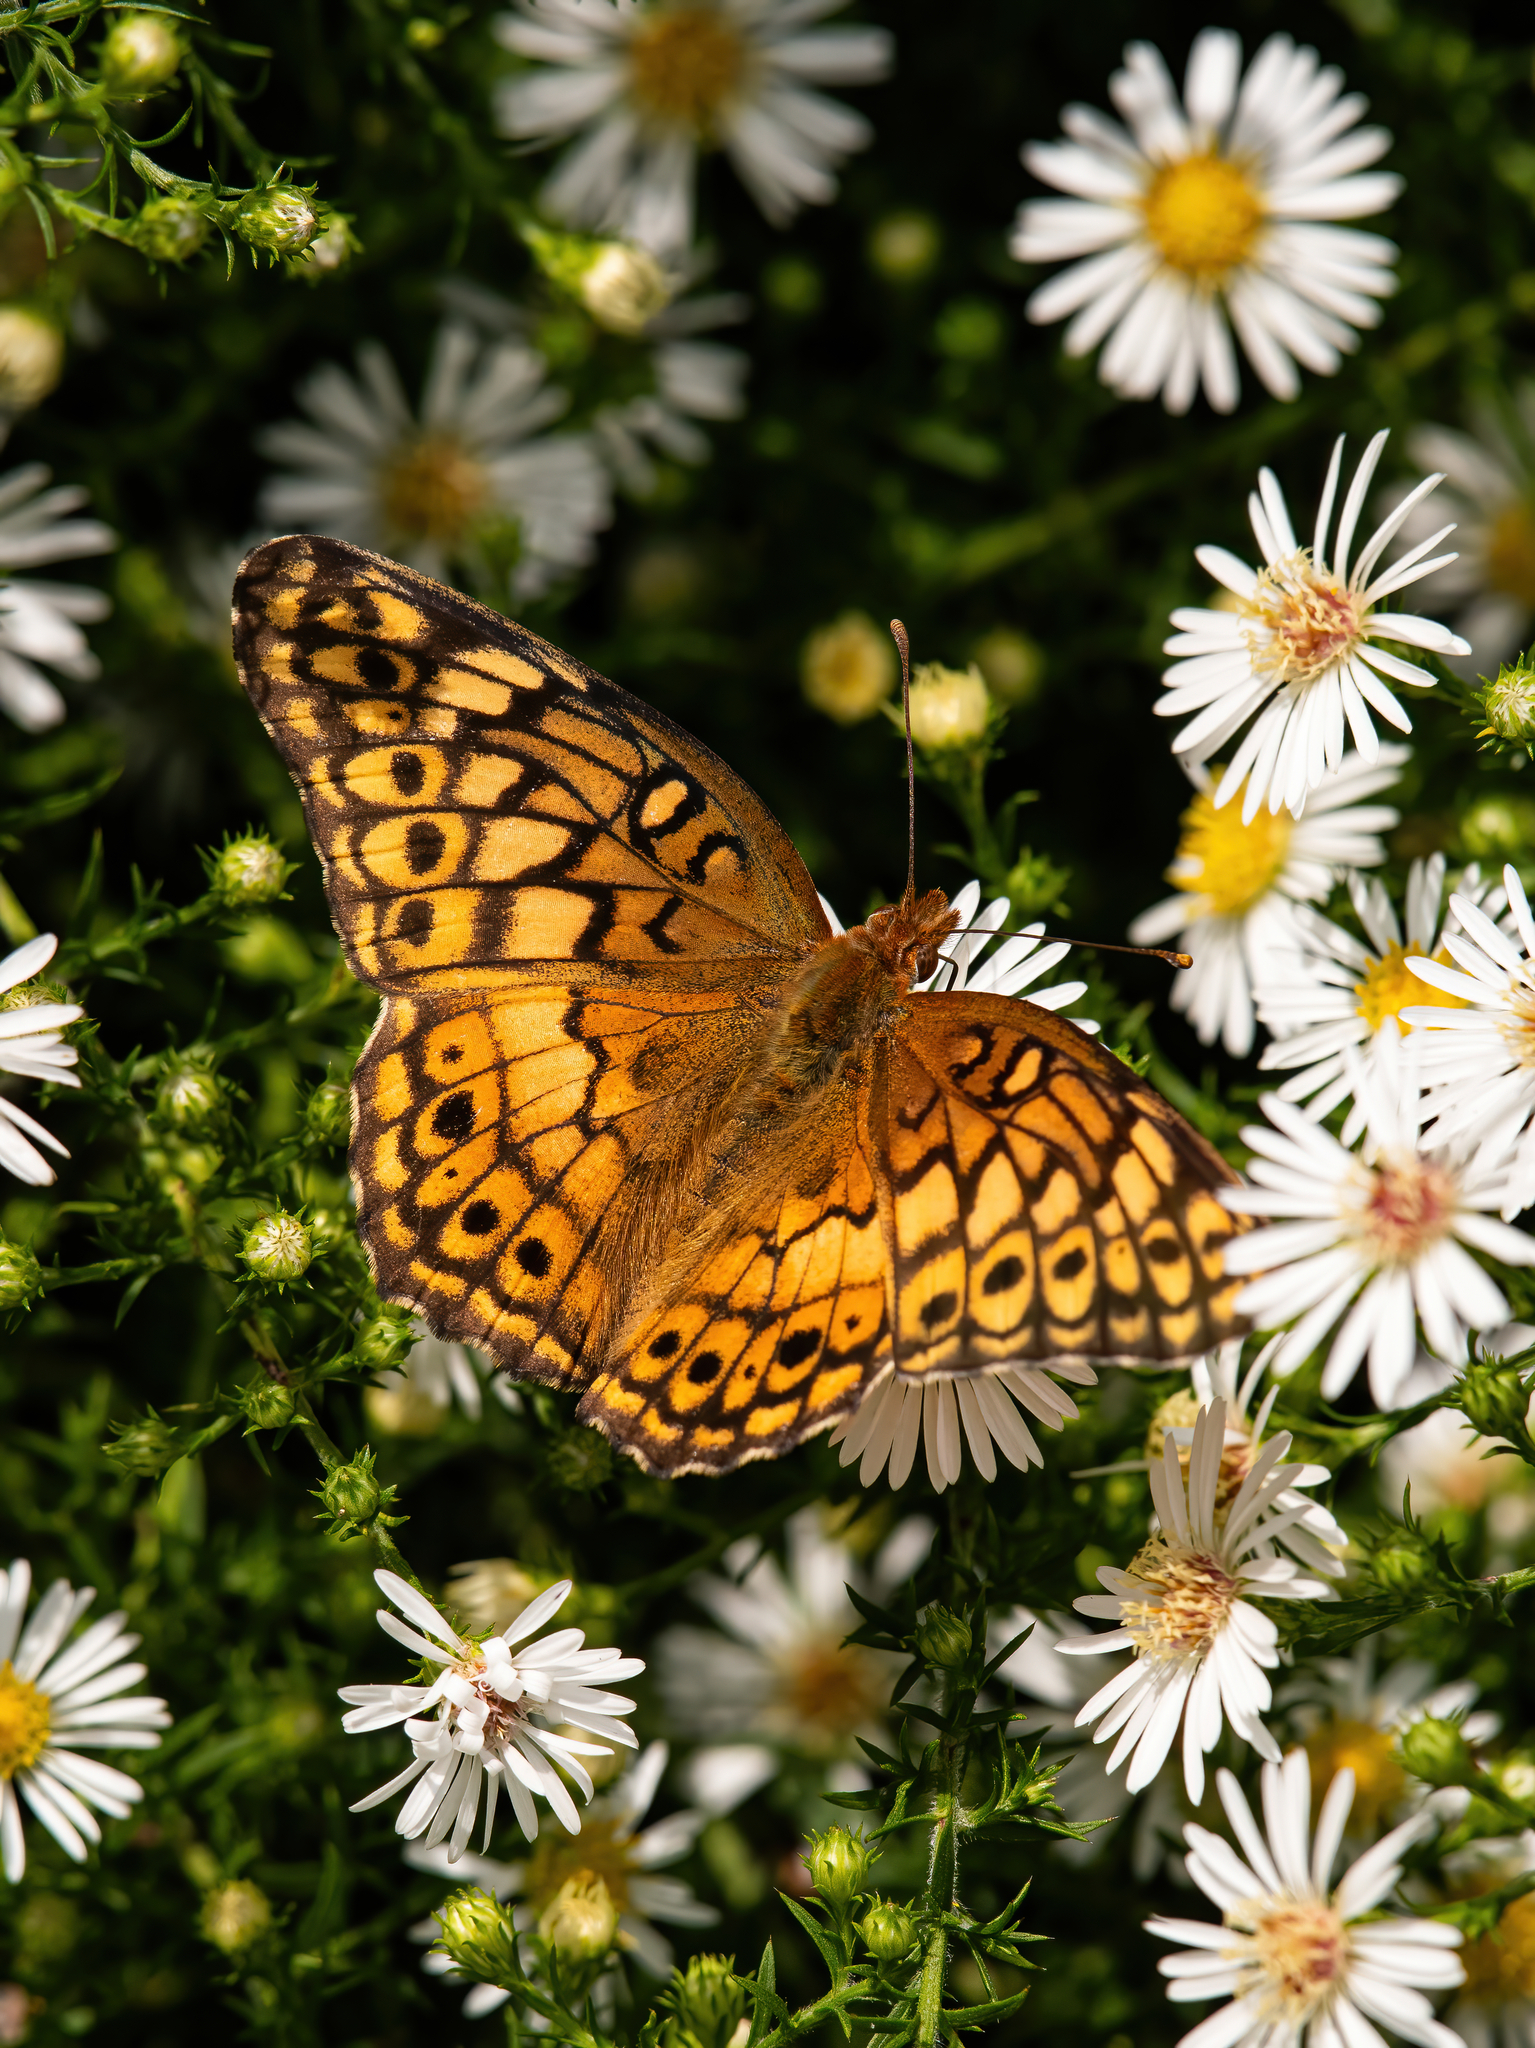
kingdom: Animalia
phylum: Arthropoda
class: Insecta
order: Lepidoptera
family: Nymphalidae
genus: Euptoieta
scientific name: Euptoieta claudia
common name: Variegated fritillary
